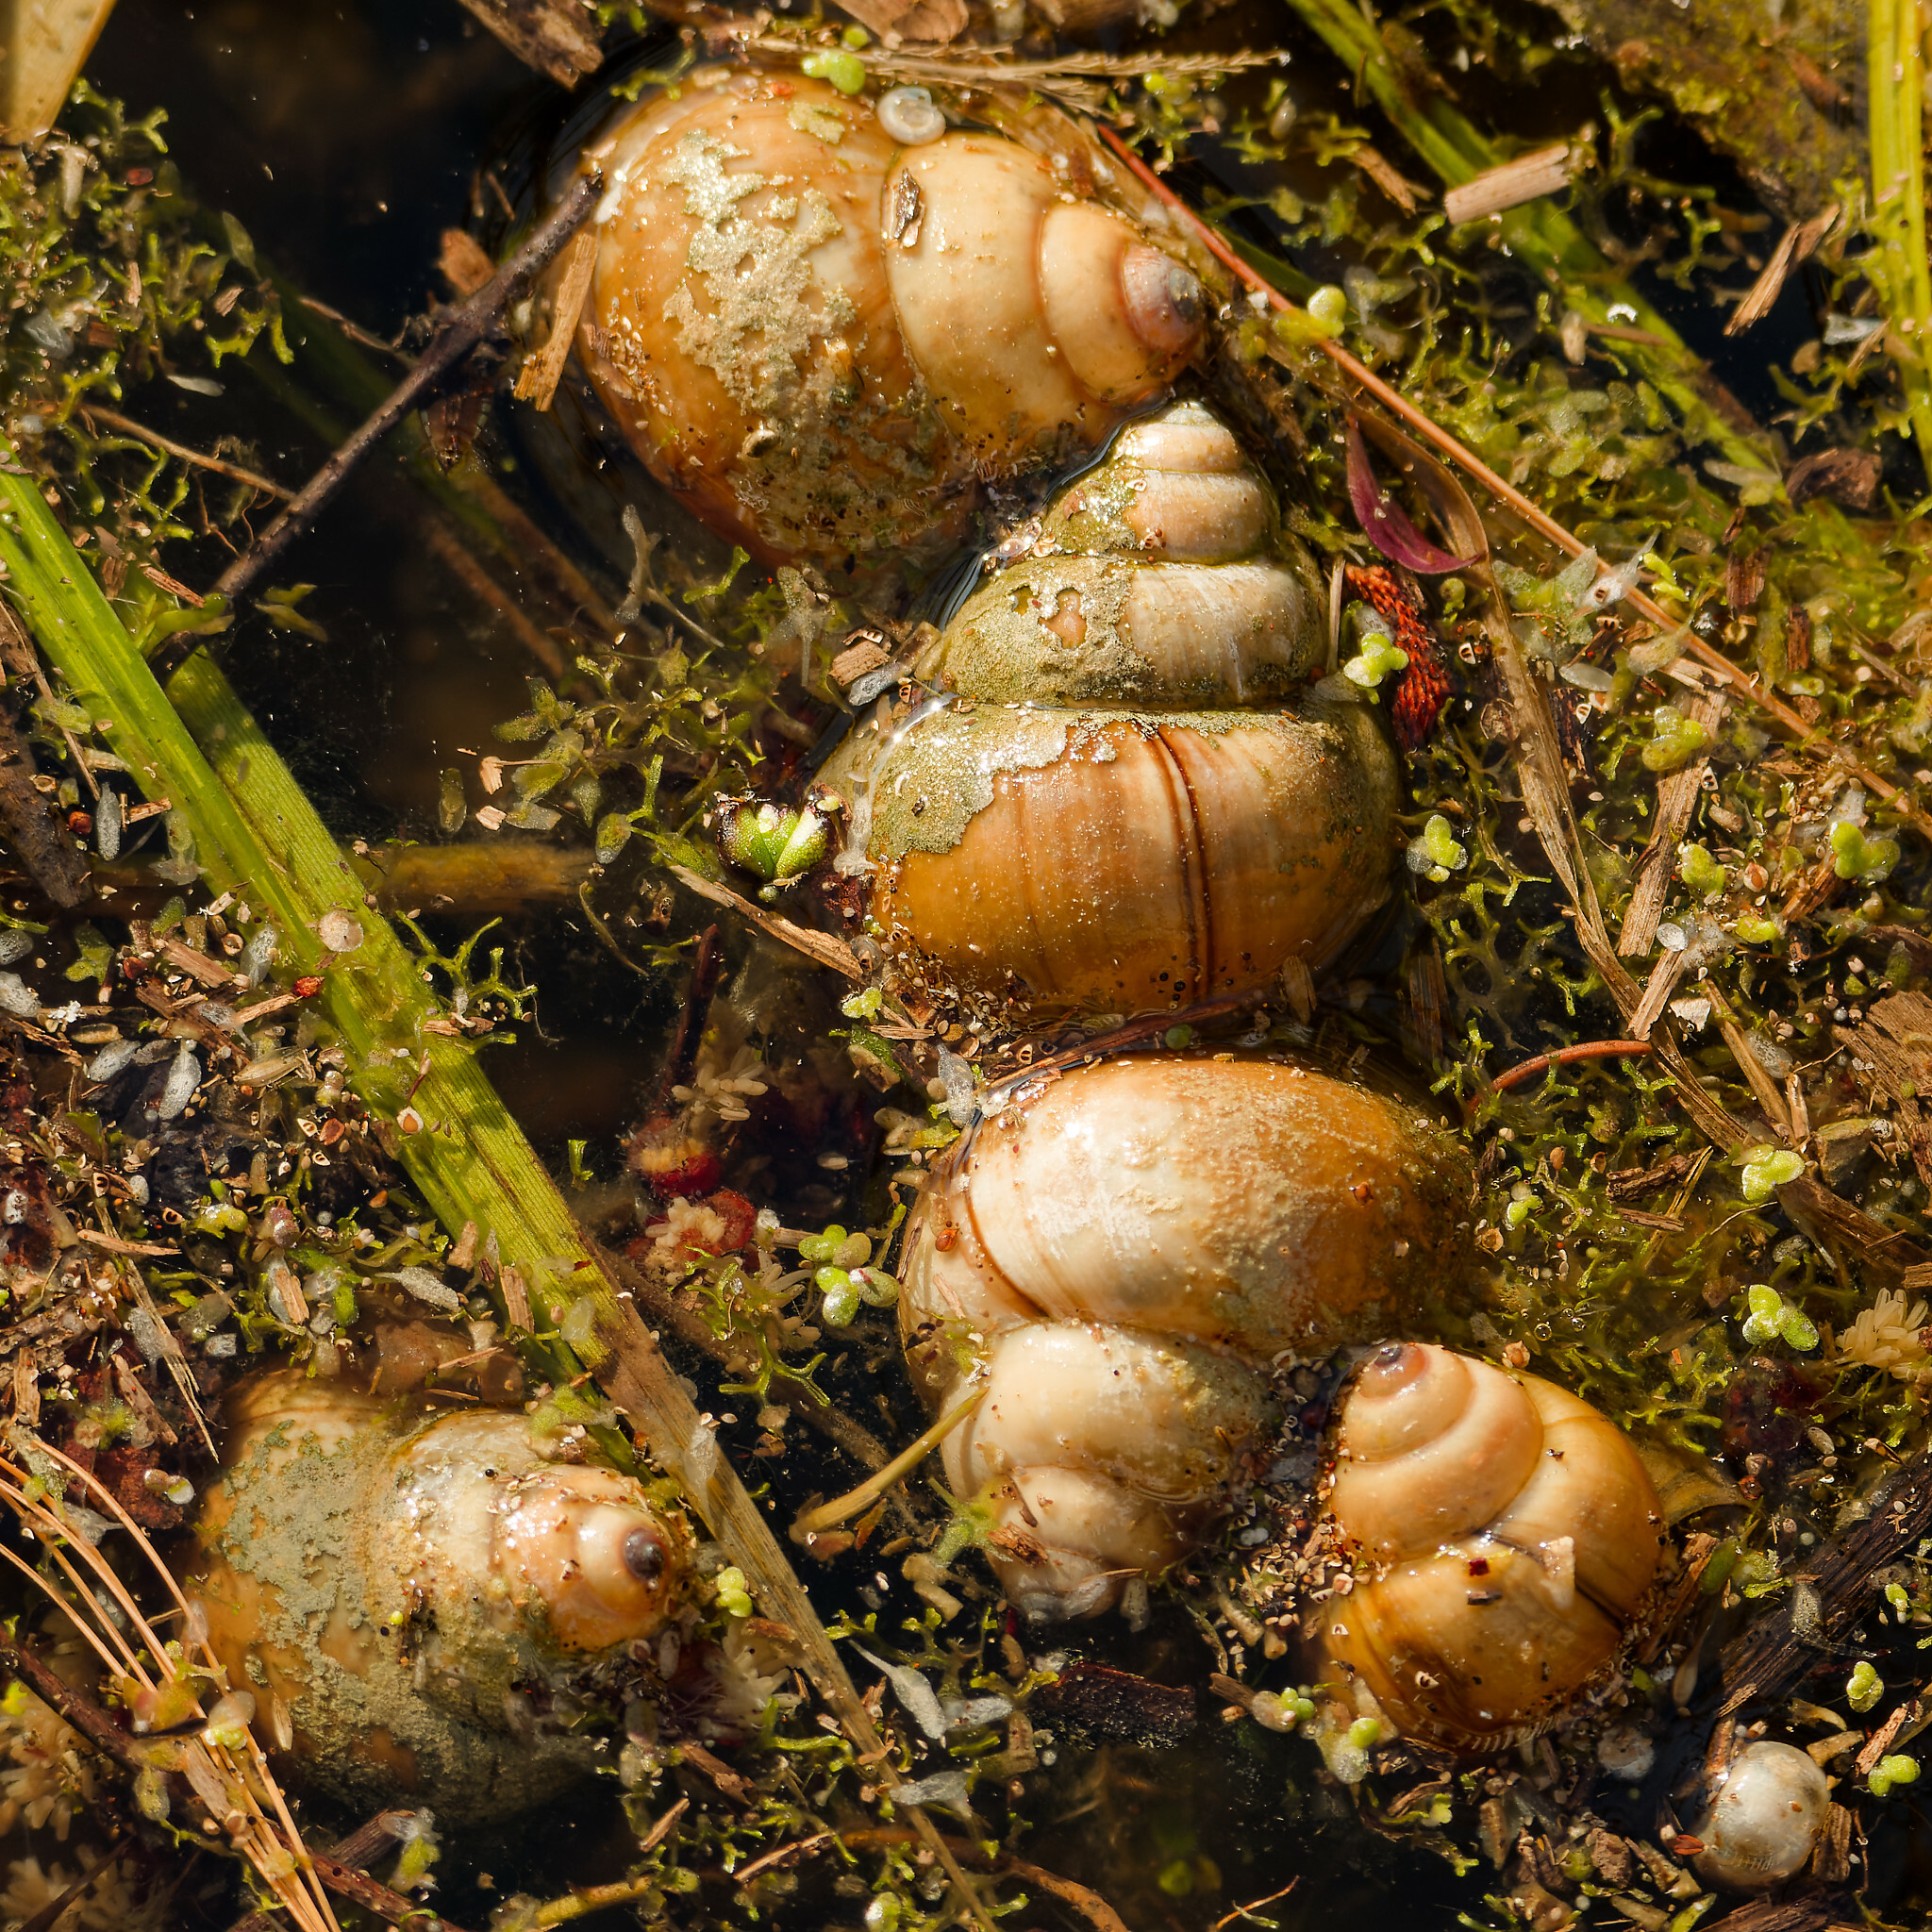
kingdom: Animalia
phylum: Mollusca
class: Gastropoda
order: Architaenioglossa
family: Viviparidae
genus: Cipangopaludina
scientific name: Cipangopaludina chinensis
